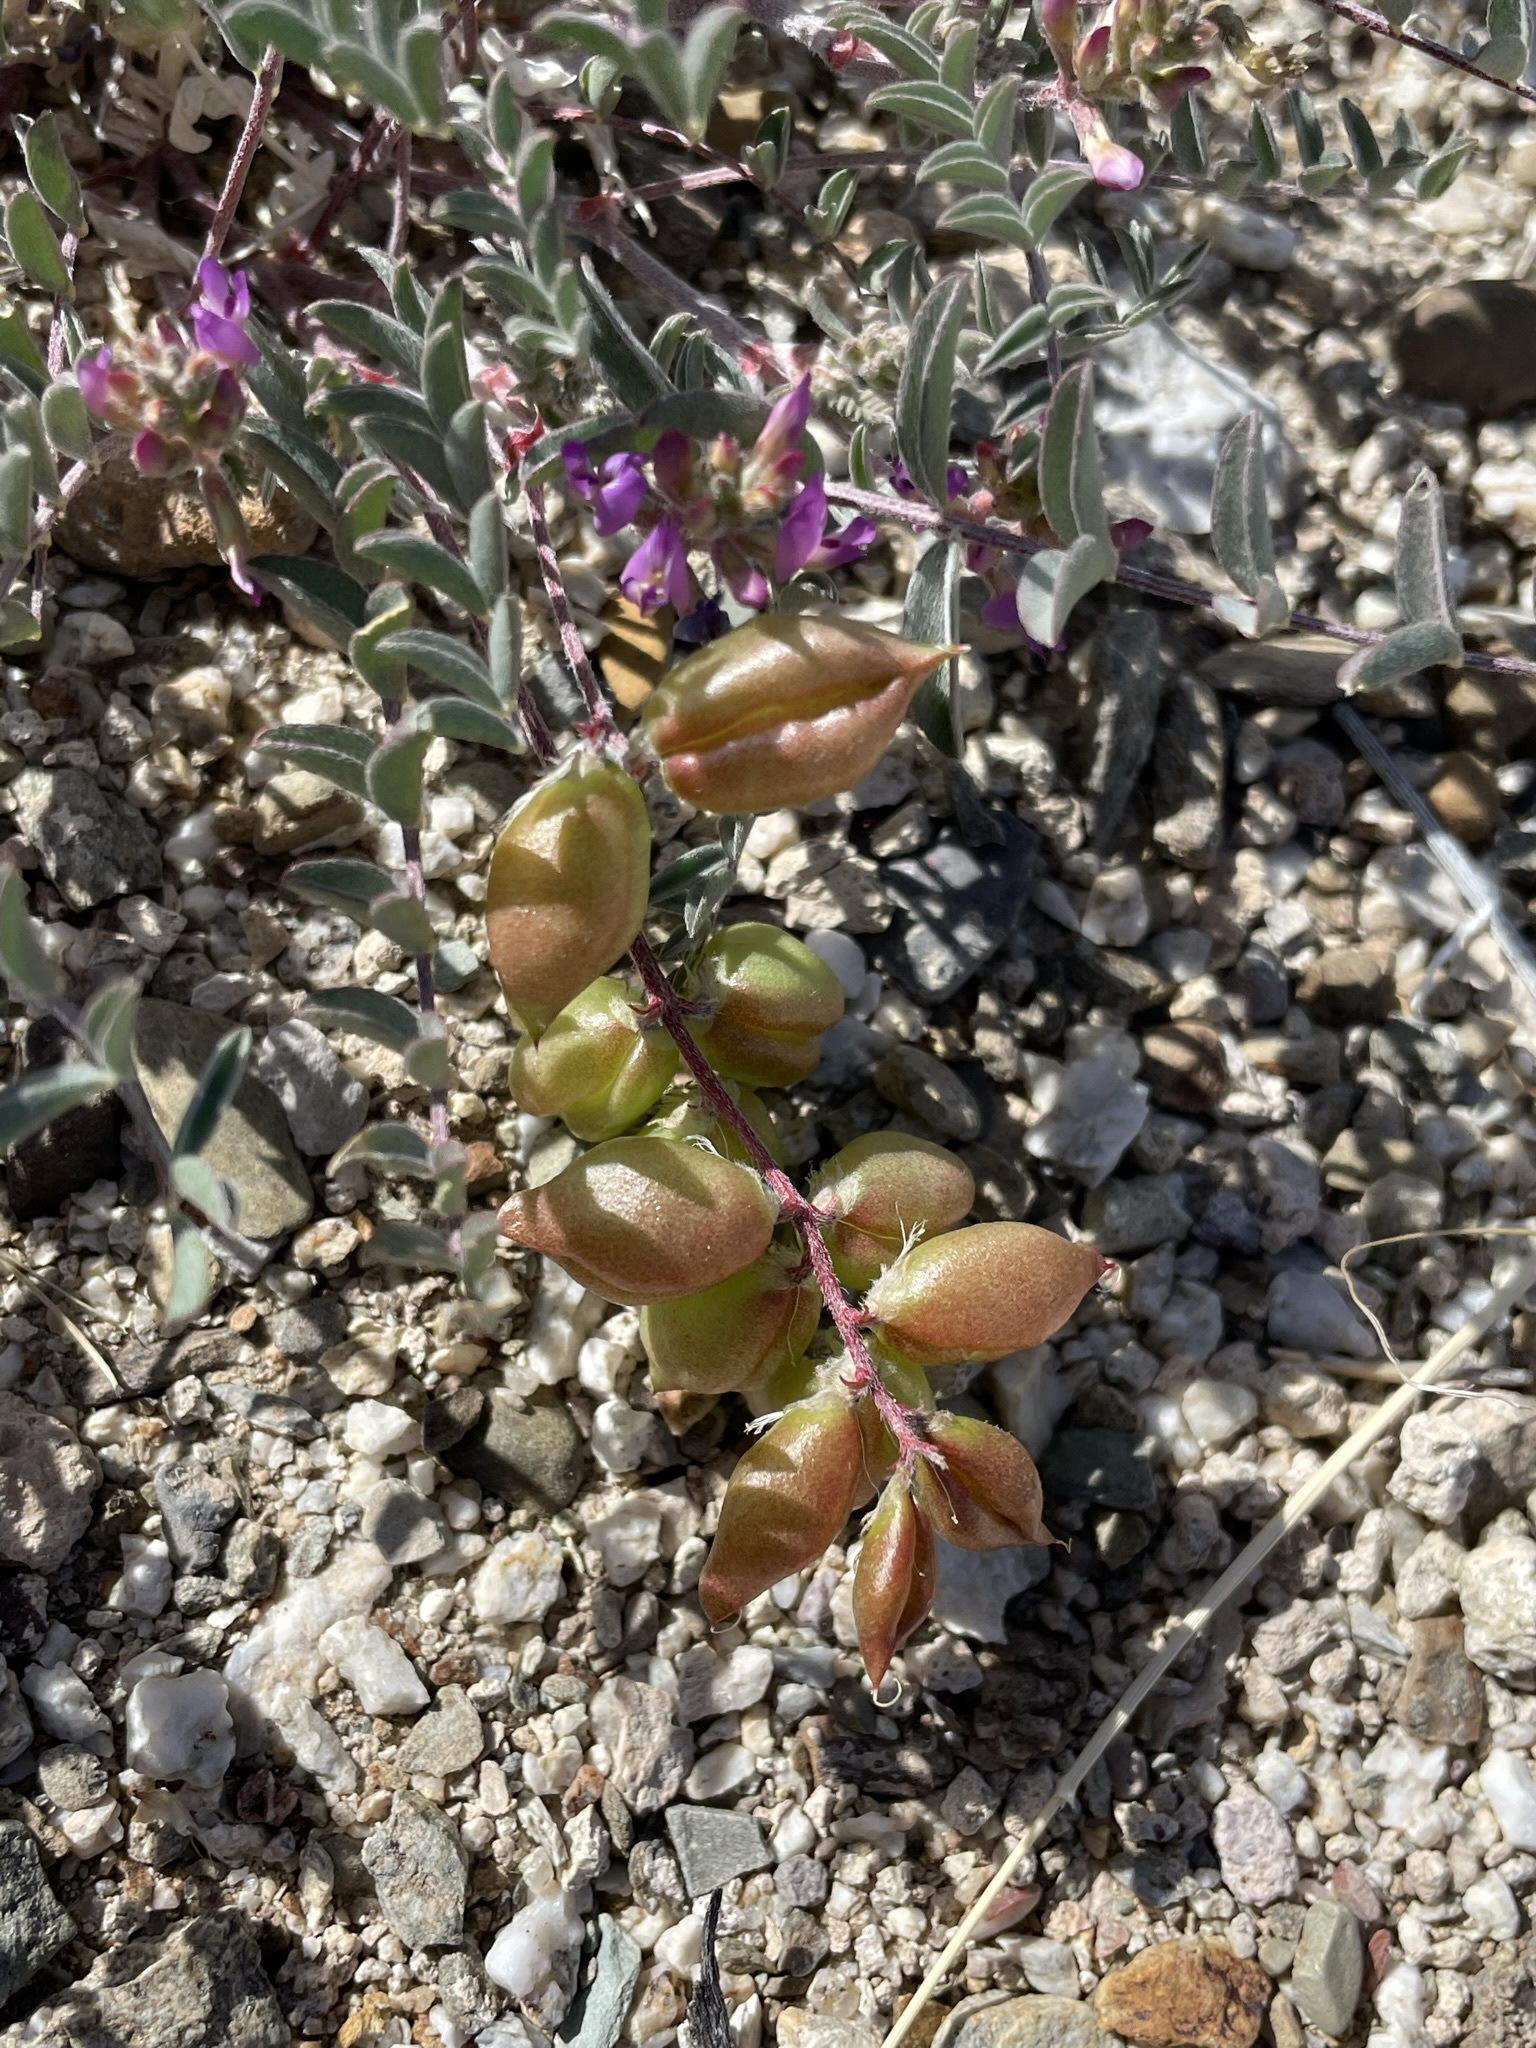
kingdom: Plantae
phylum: Tracheophyta
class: Magnoliopsida
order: Fabales
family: Fabaceae
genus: Astragalus
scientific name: Astragalus lentiginosus
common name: Freckled milkvetch
